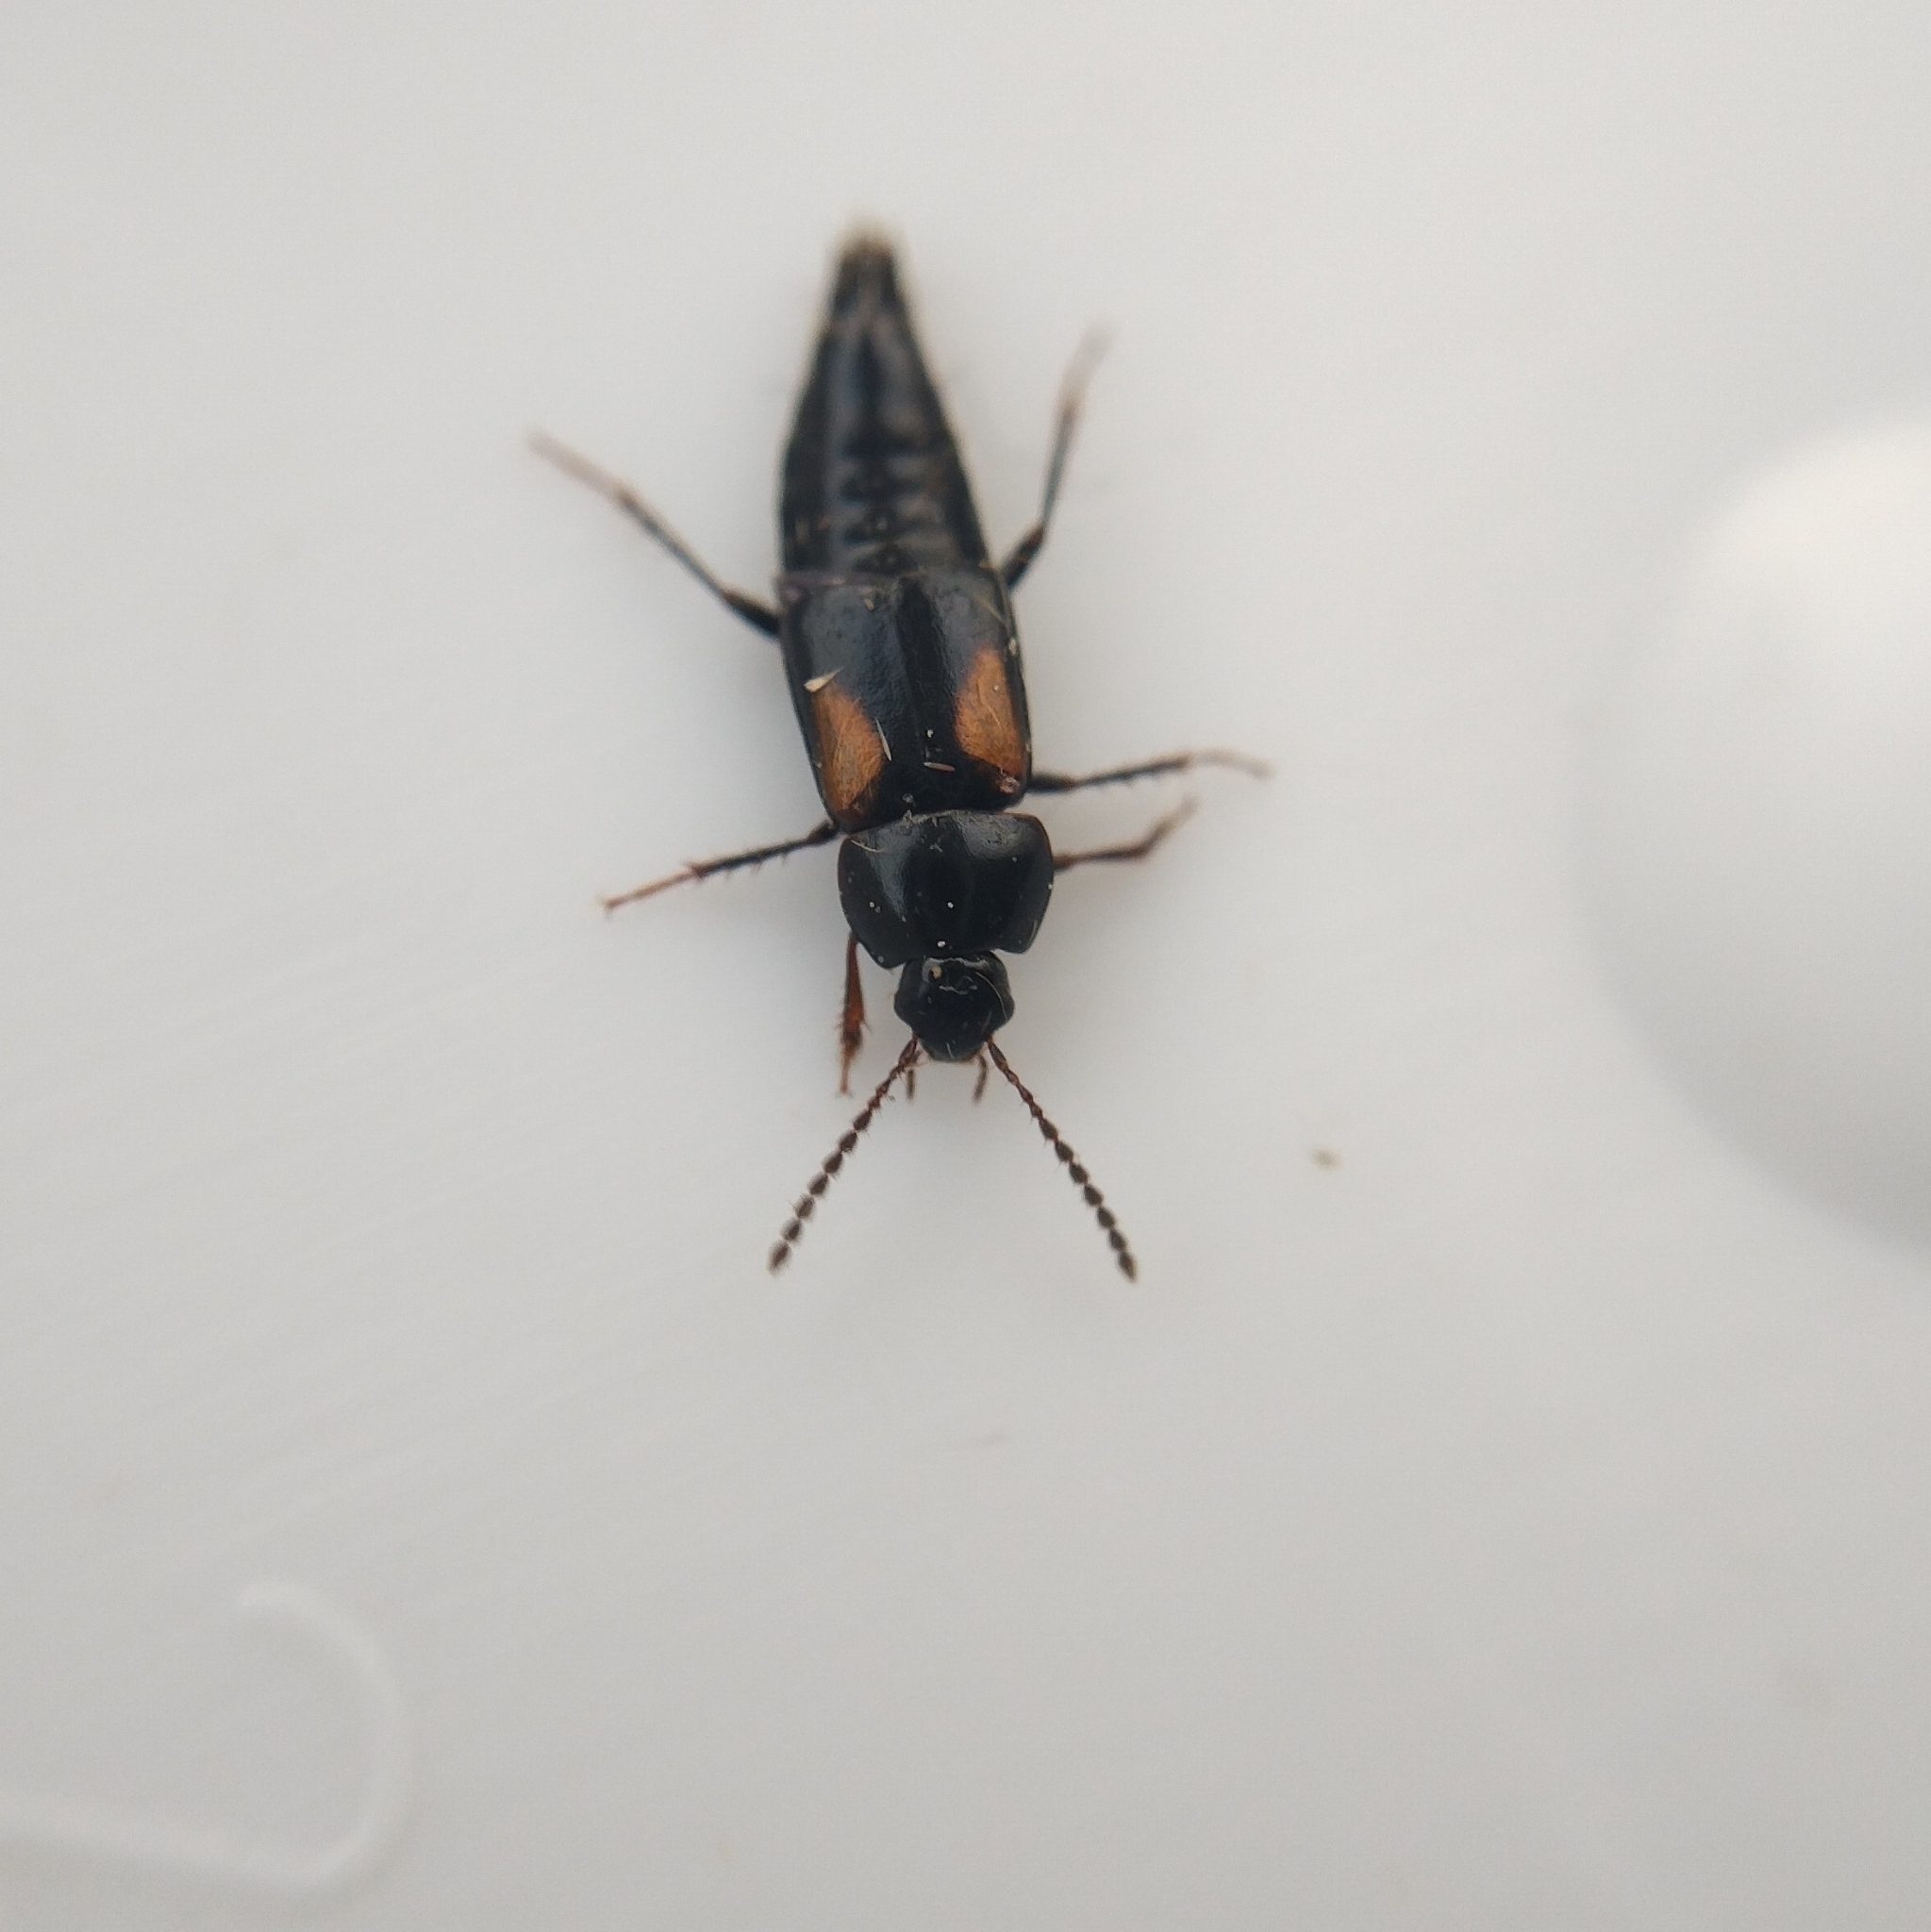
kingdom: Animalia
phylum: Arthropoda
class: Insecta
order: Coleoptera
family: Staphylinidae
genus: Tachinus
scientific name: Tachinus subterraneus
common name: Staph beetle
